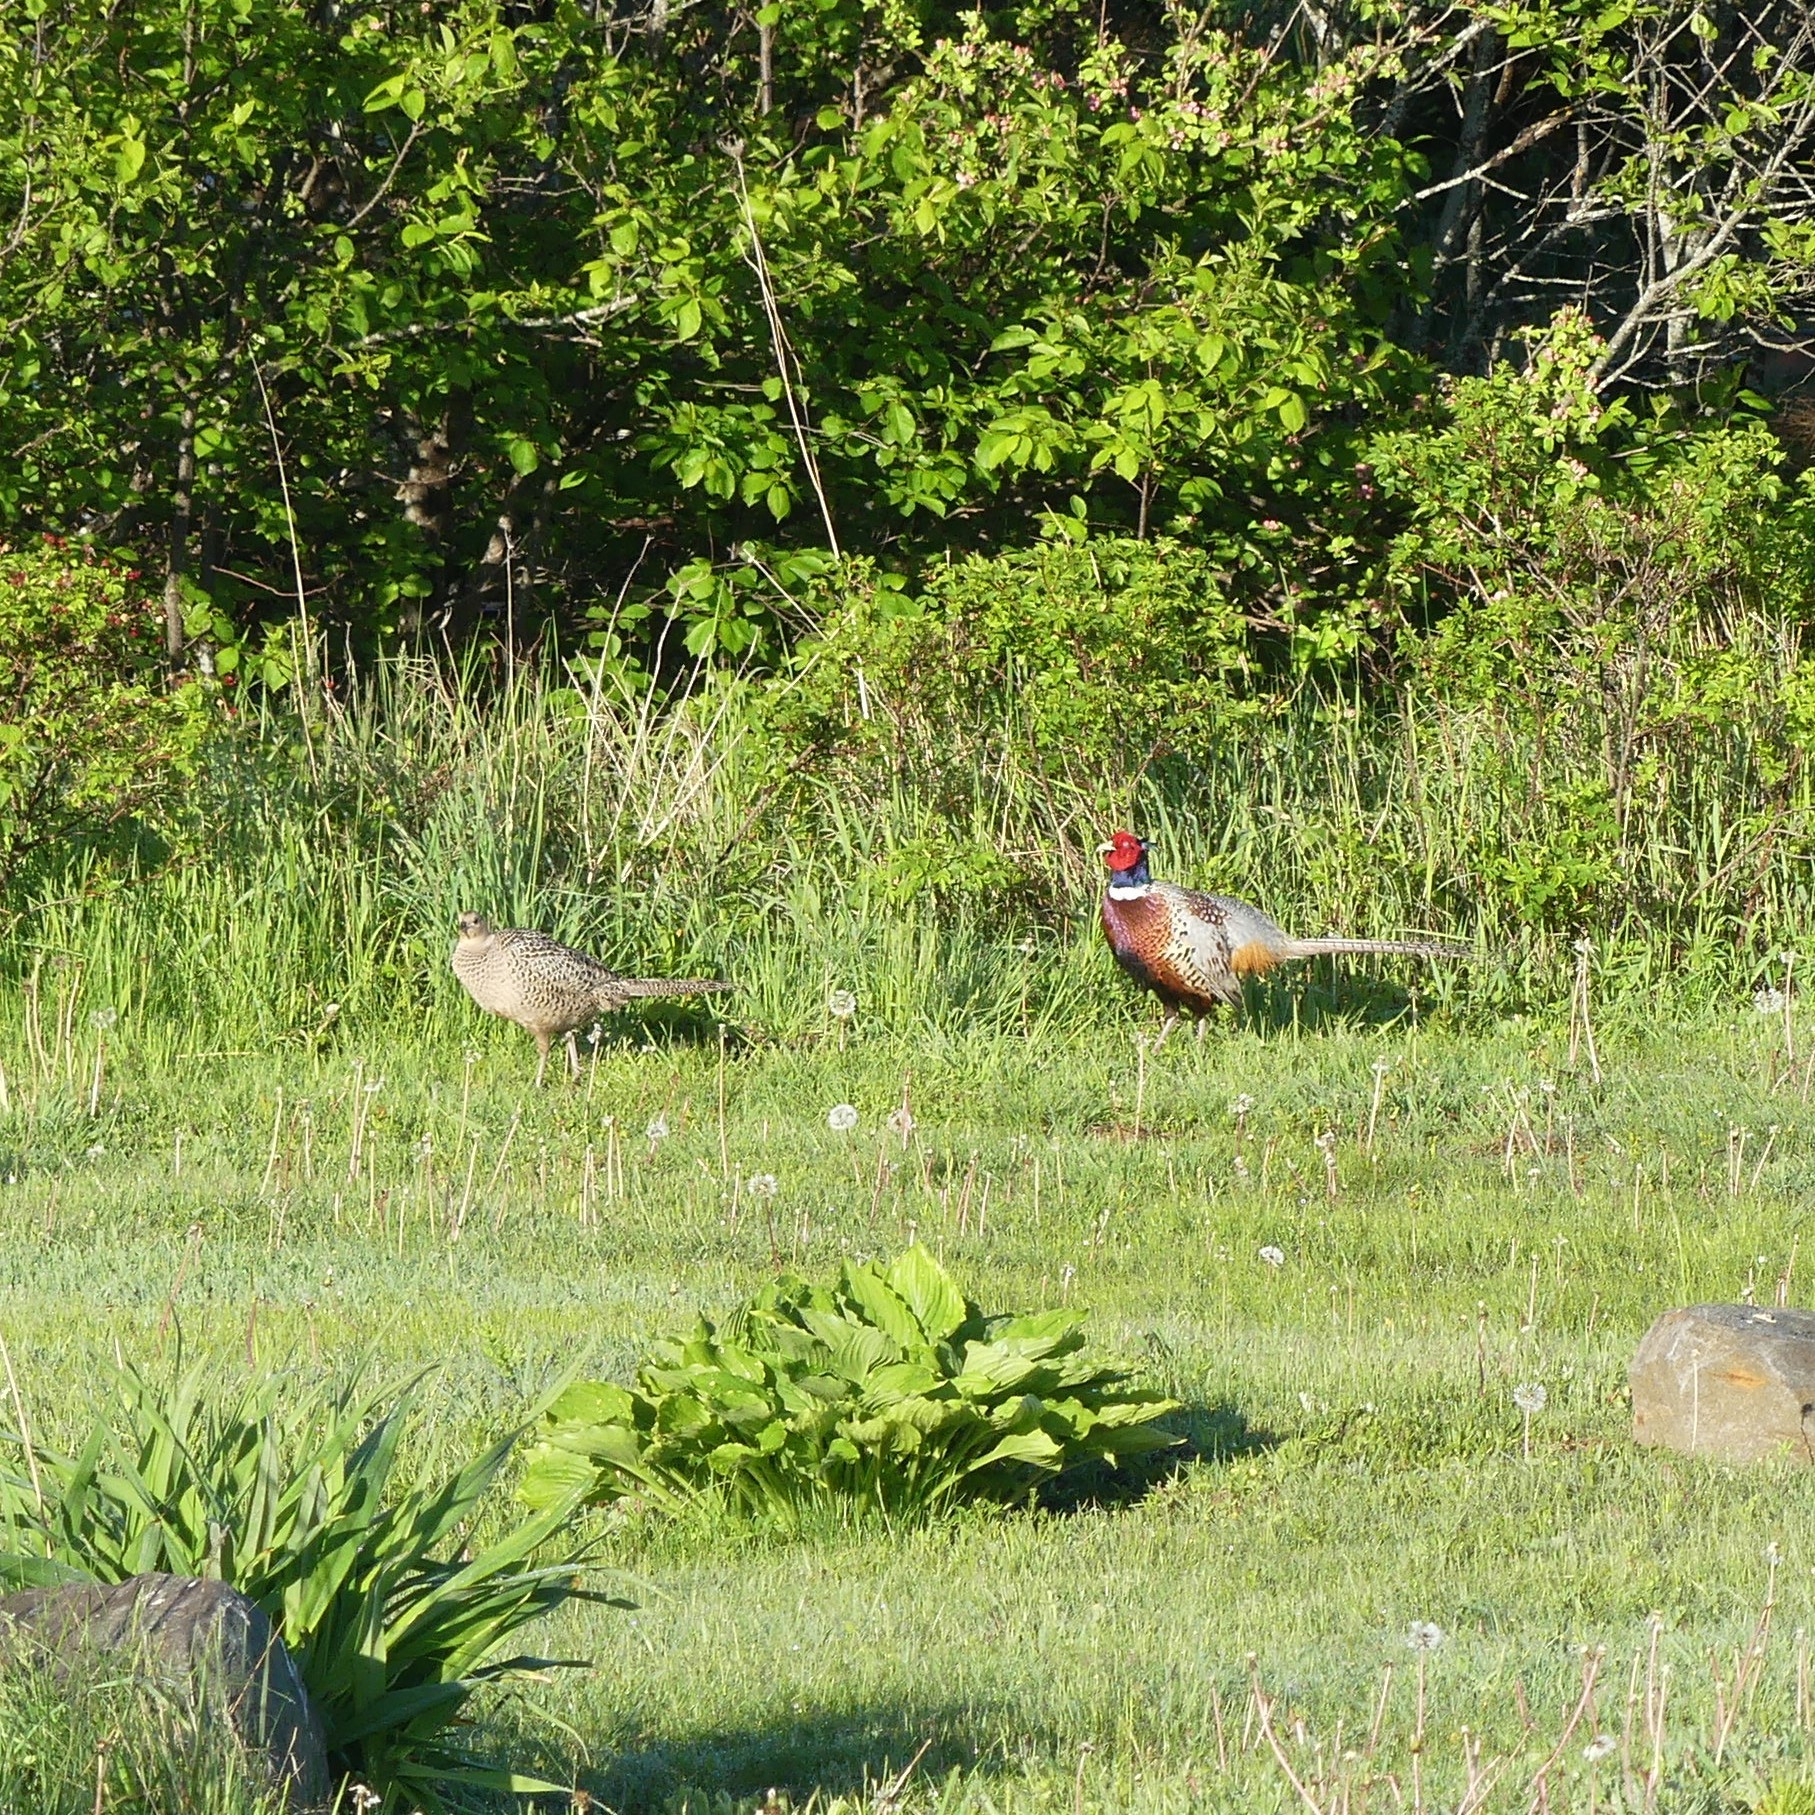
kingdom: Animalia
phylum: Chordata
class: Aves
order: Galliformes
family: Phasianidae
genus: Phasianus
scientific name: Phasianus colchicus
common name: Common pheasant
